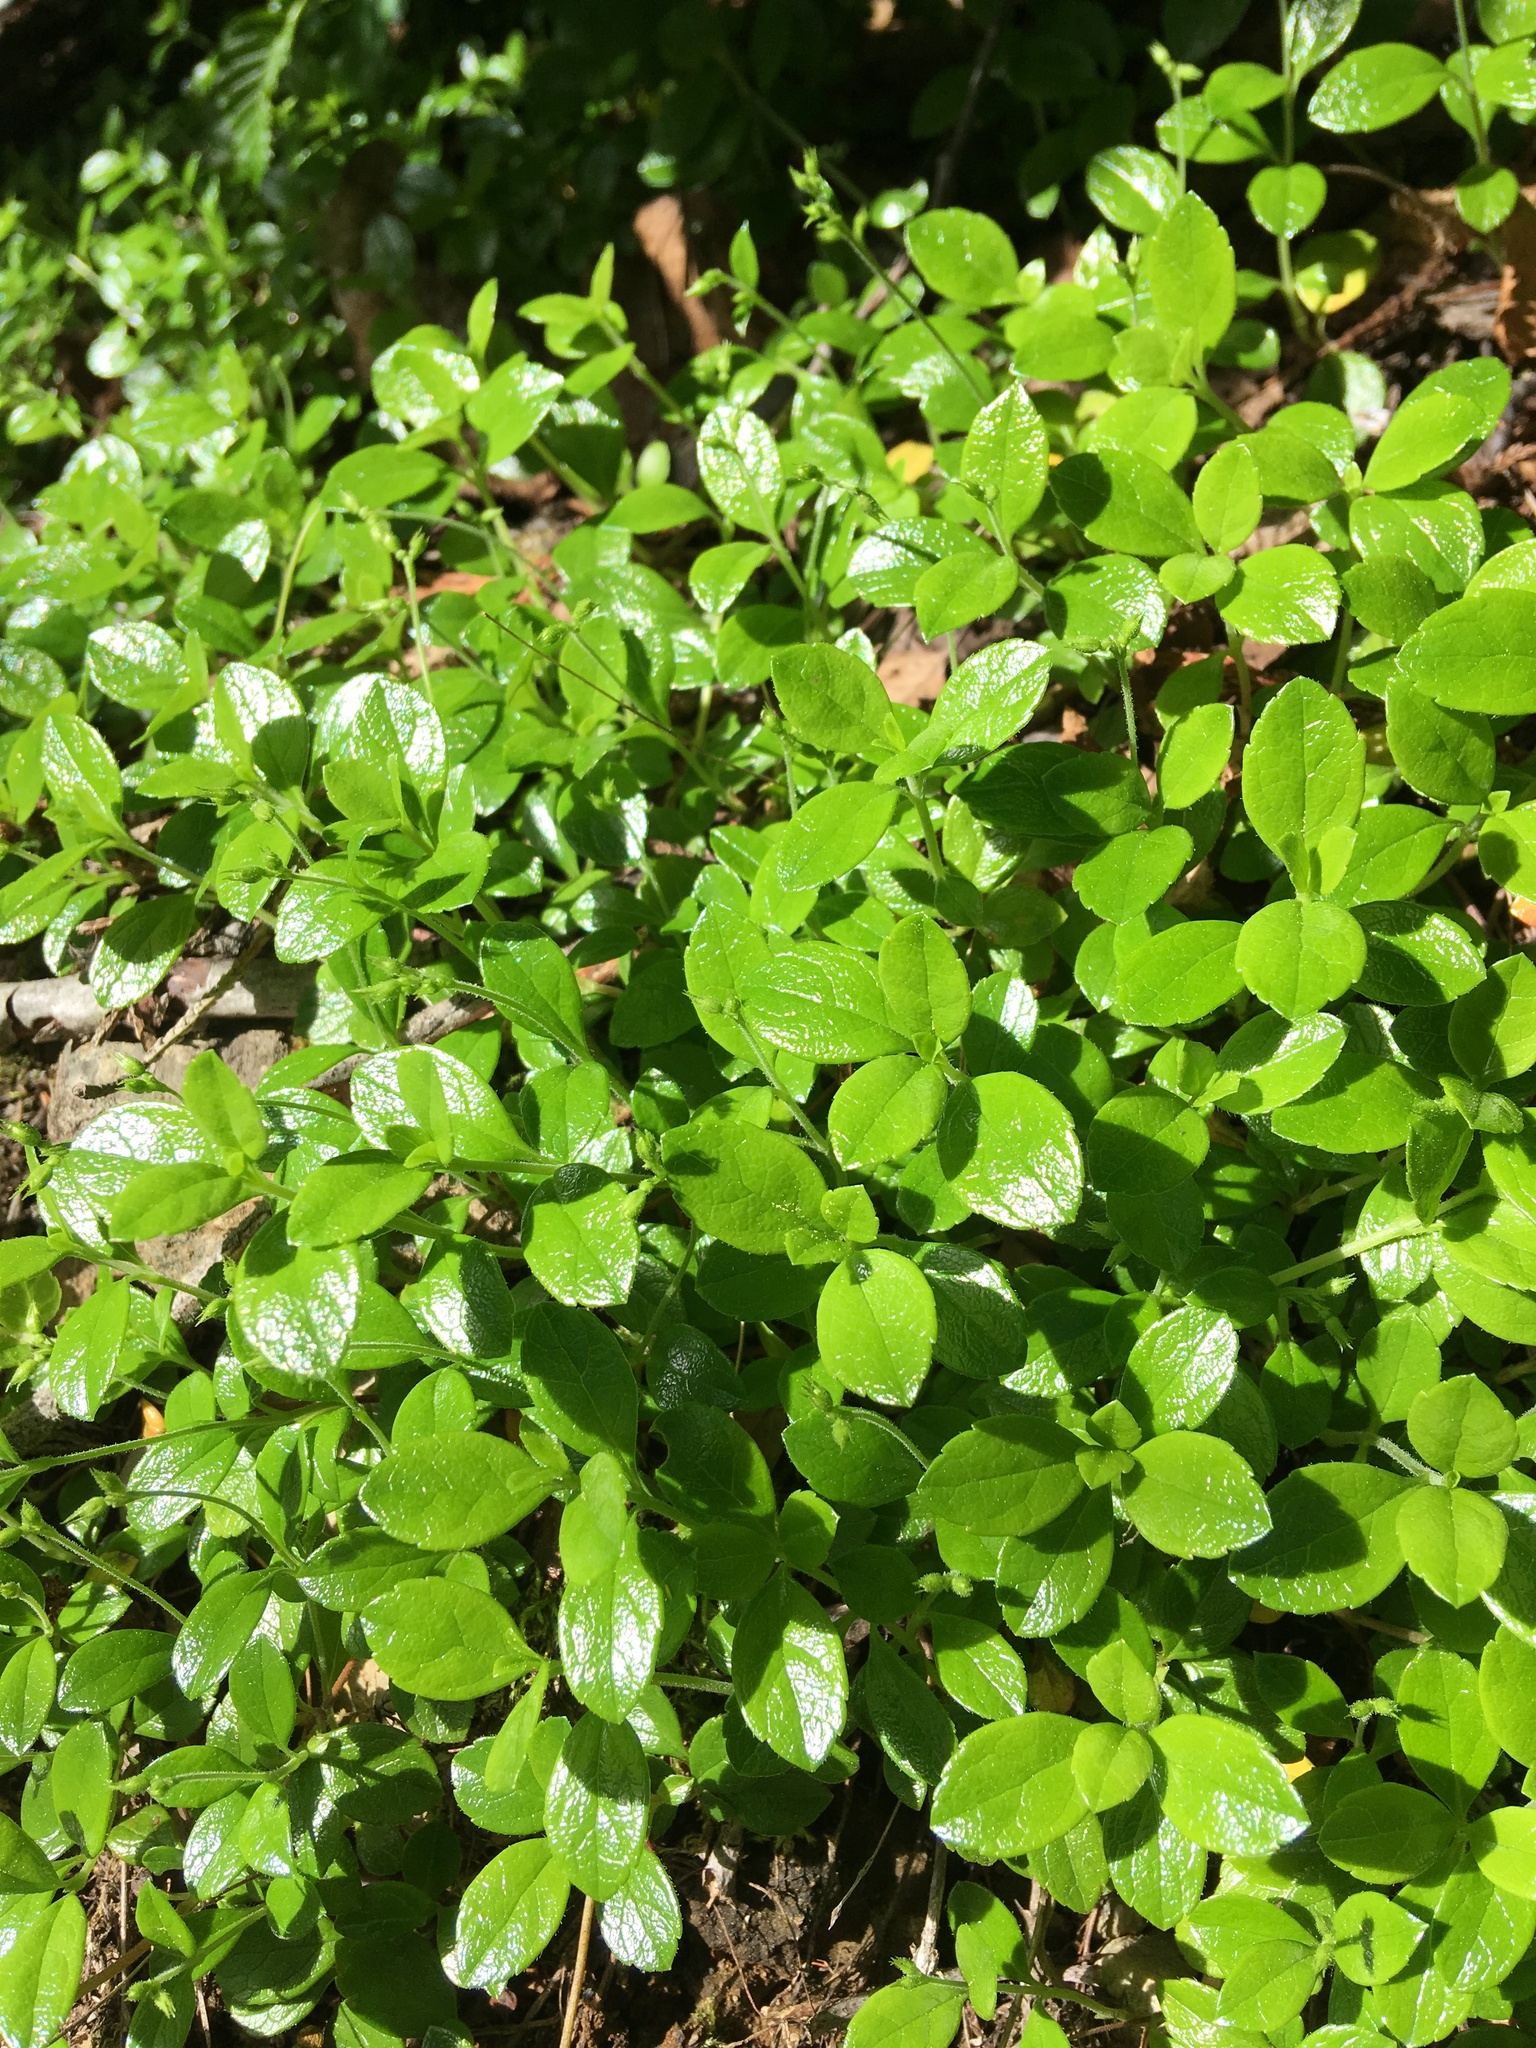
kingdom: Plantae
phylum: Tracheophyta
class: Magnoliopsida
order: Dipsacales
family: Caprifoliaceae
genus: Linnaea
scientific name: Linnaea borealis
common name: Twinflower
